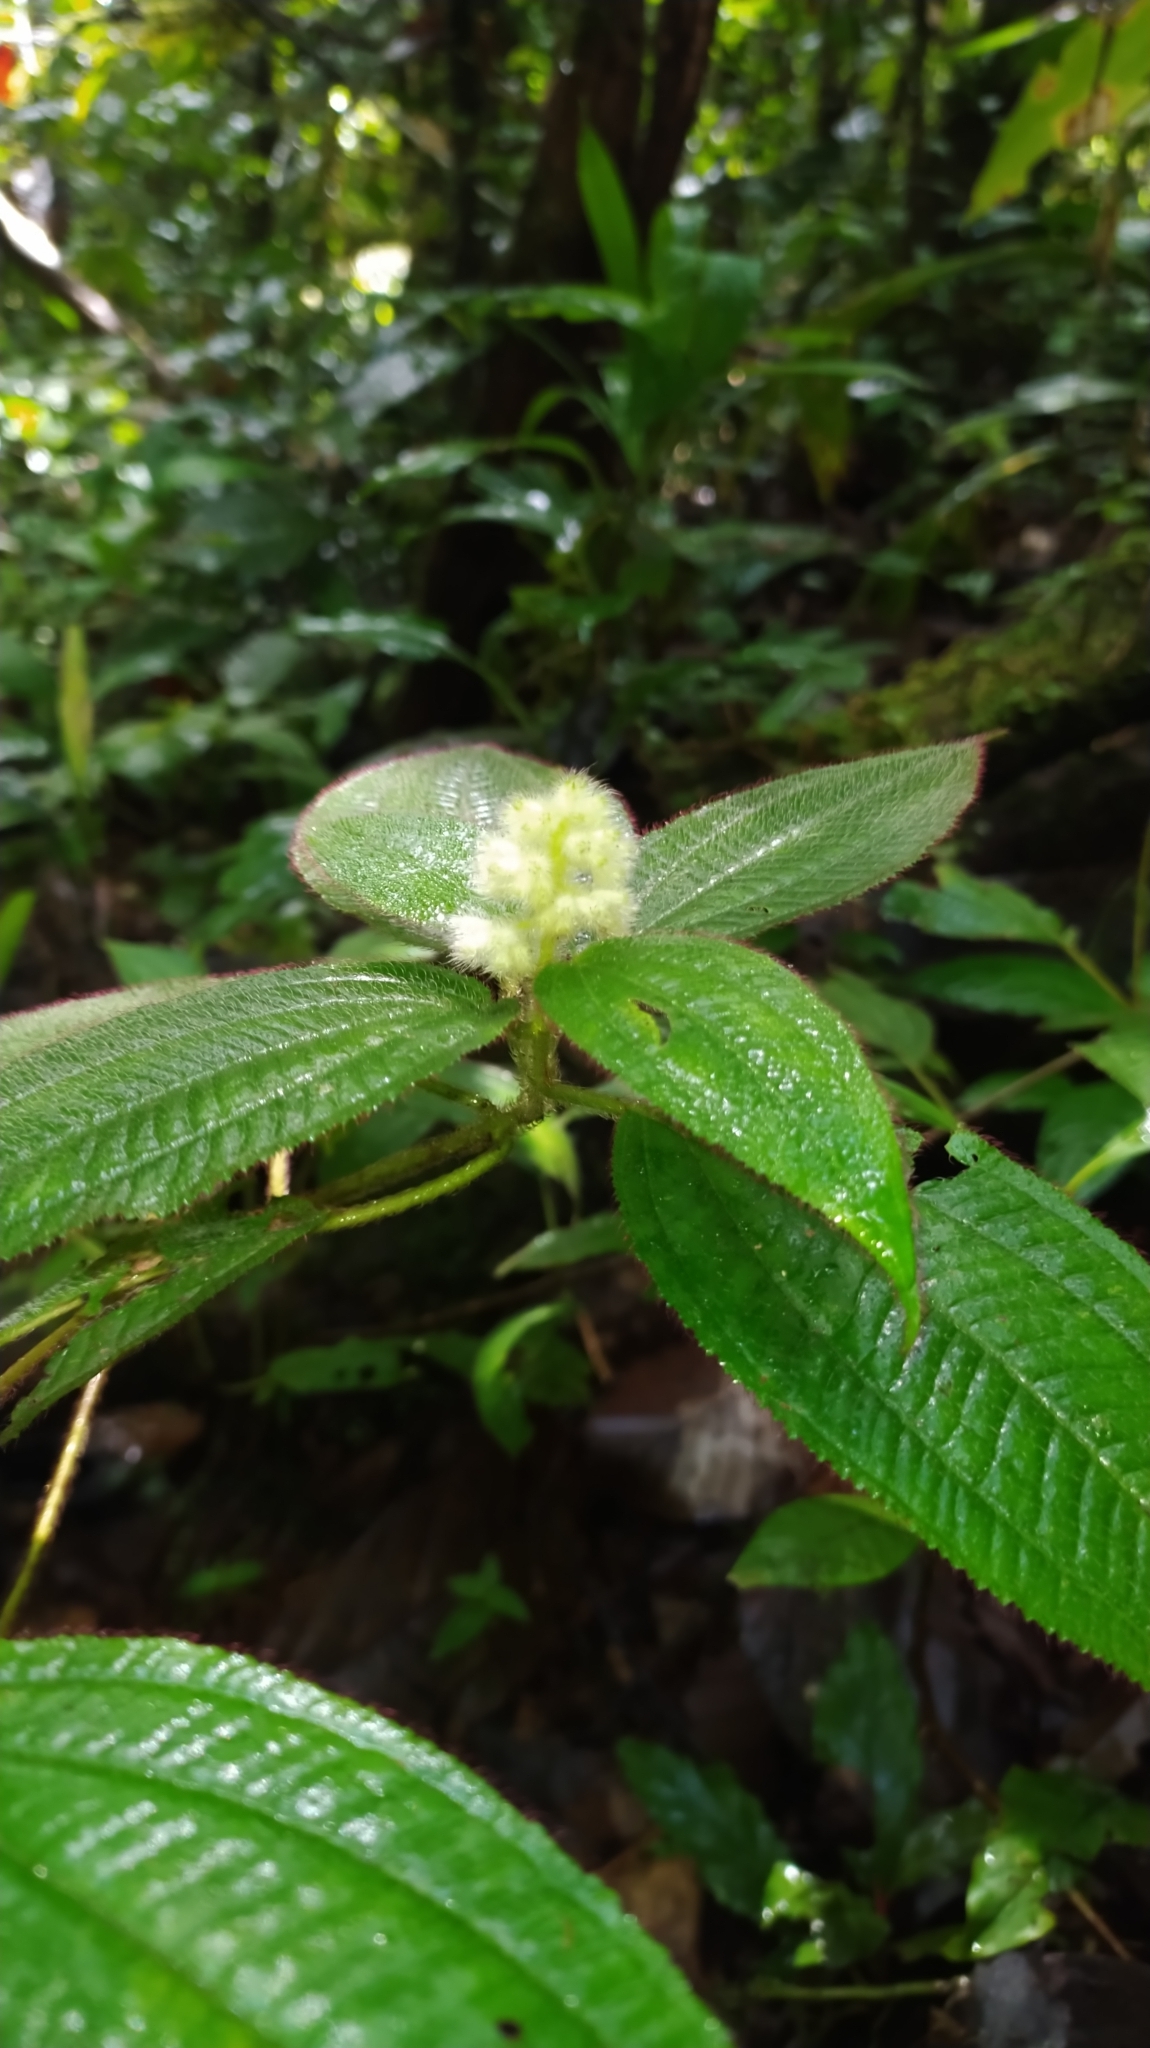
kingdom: Plantae
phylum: Tracheophyta
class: Magnoliopsida
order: Myrtales
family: Melastomataceae
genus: Miconia
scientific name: Miconia agrestis
